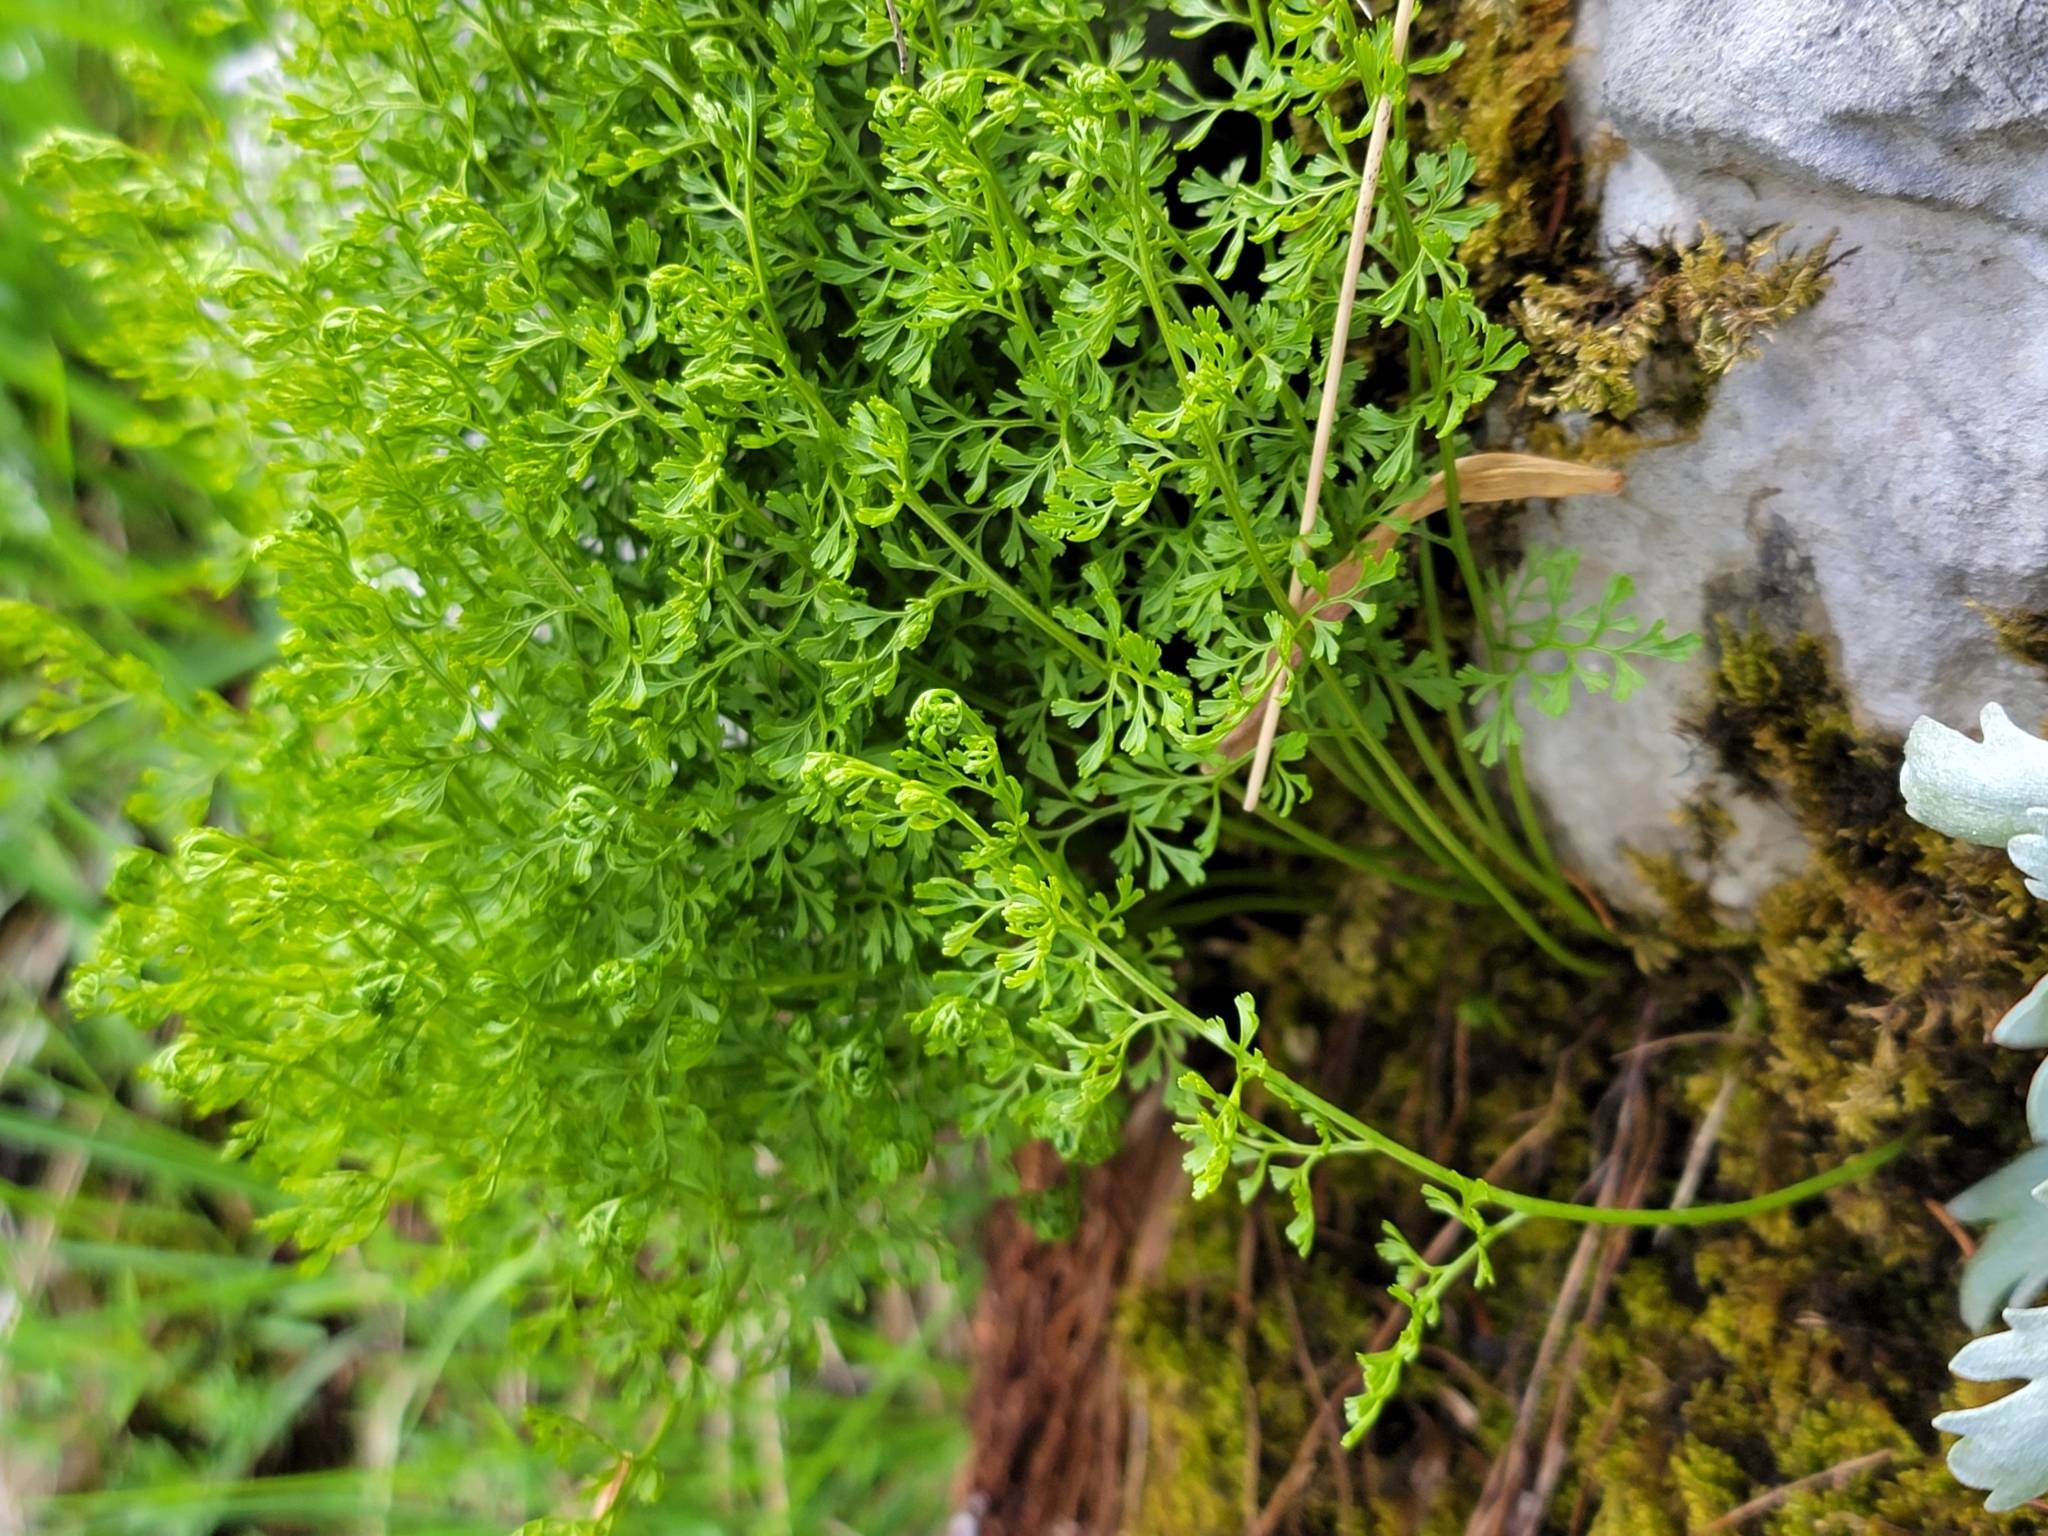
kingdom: Plantae
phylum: Tracheophyta
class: Polypodiopsida
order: Polypodiales
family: Pteridaceae
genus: Cryptogramma
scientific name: Cryptogramma crispa
